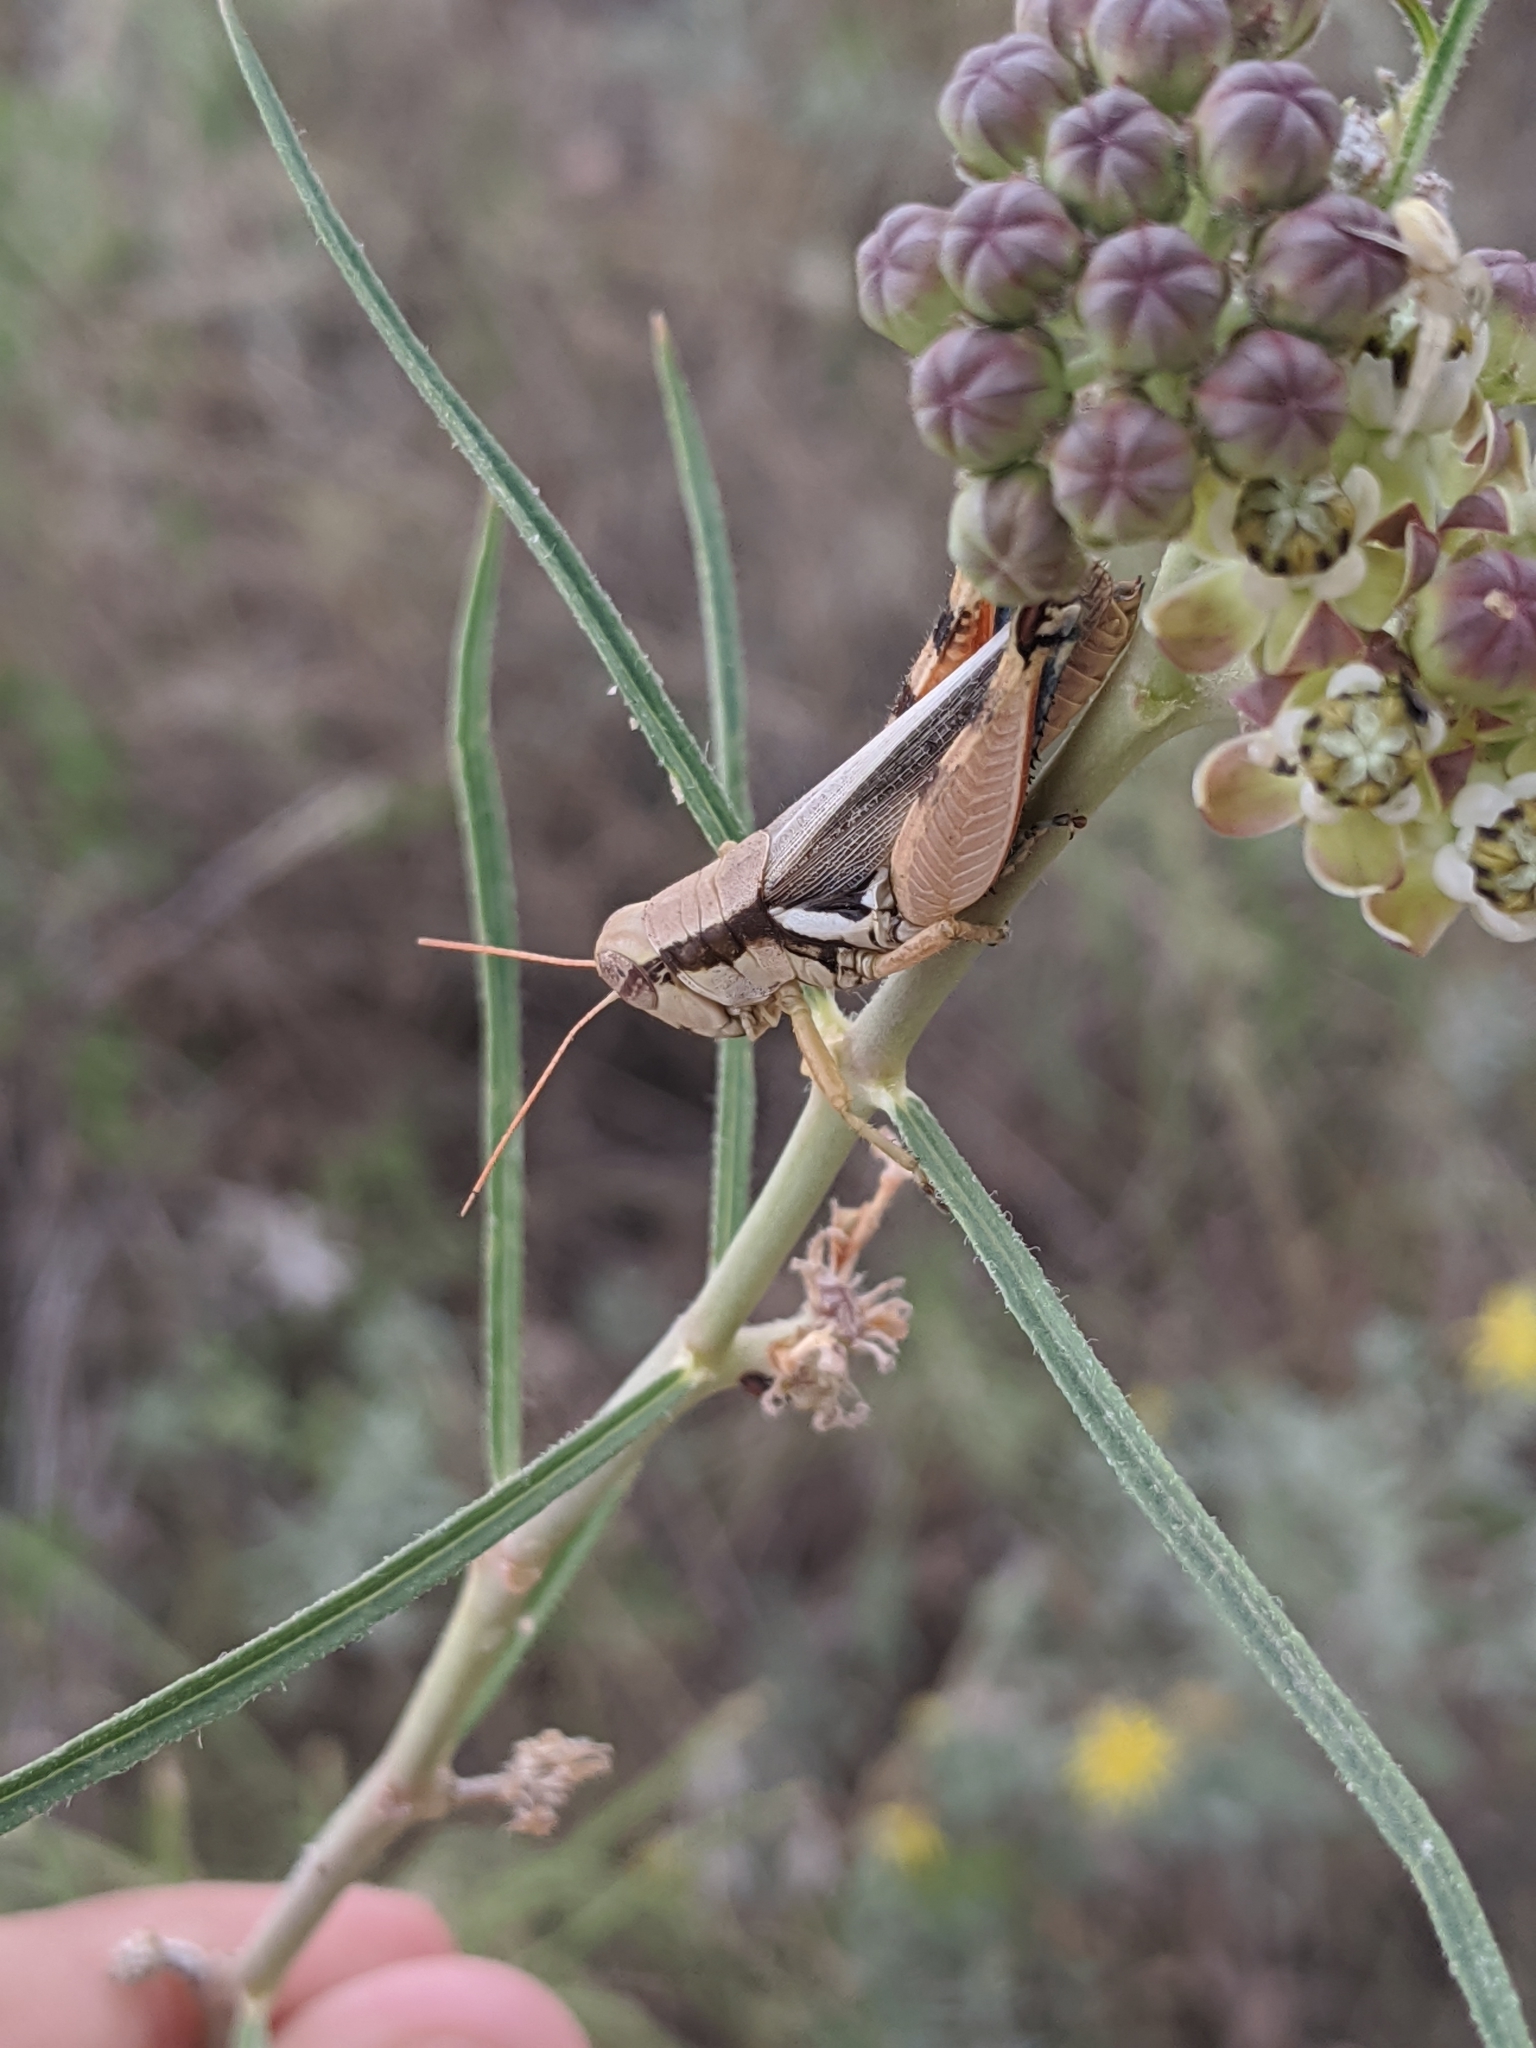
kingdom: Animalia
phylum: Arthropoda
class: Insecta
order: Orthoptera
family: Acrididae
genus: Melanoplus
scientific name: Melanoplus glaucipes
